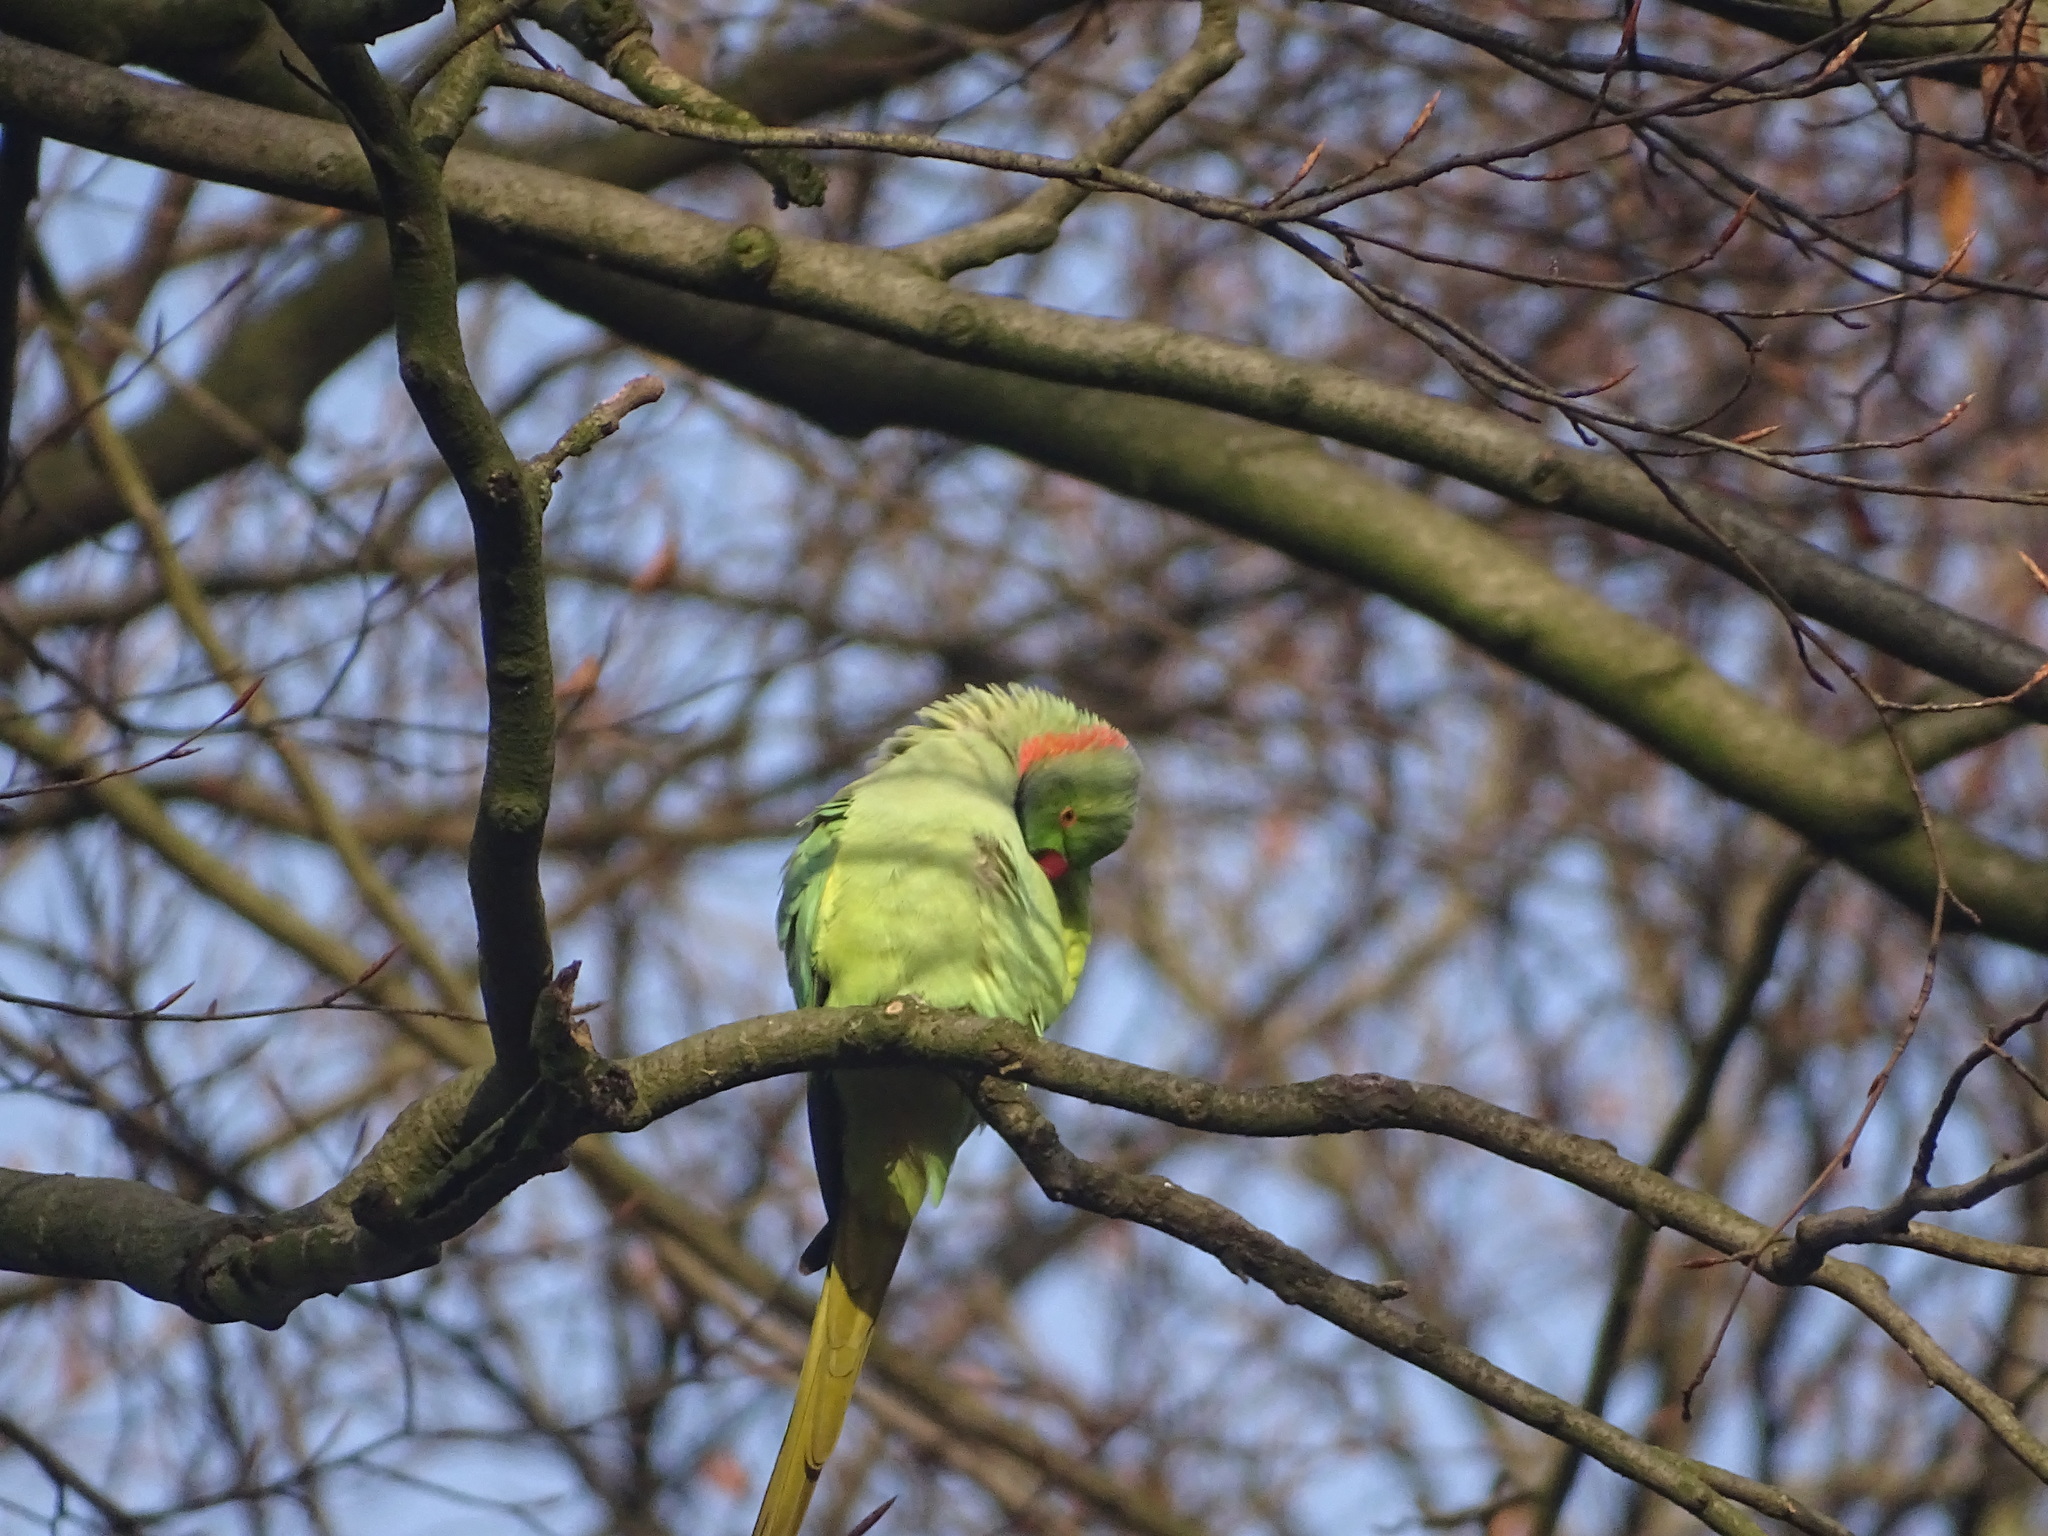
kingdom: Animalia
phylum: Chordata
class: Aves
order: Psittaciformes
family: Psittacidae
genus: Psittacula
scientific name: Psittacula krameri
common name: Rose-ringed parakeet
